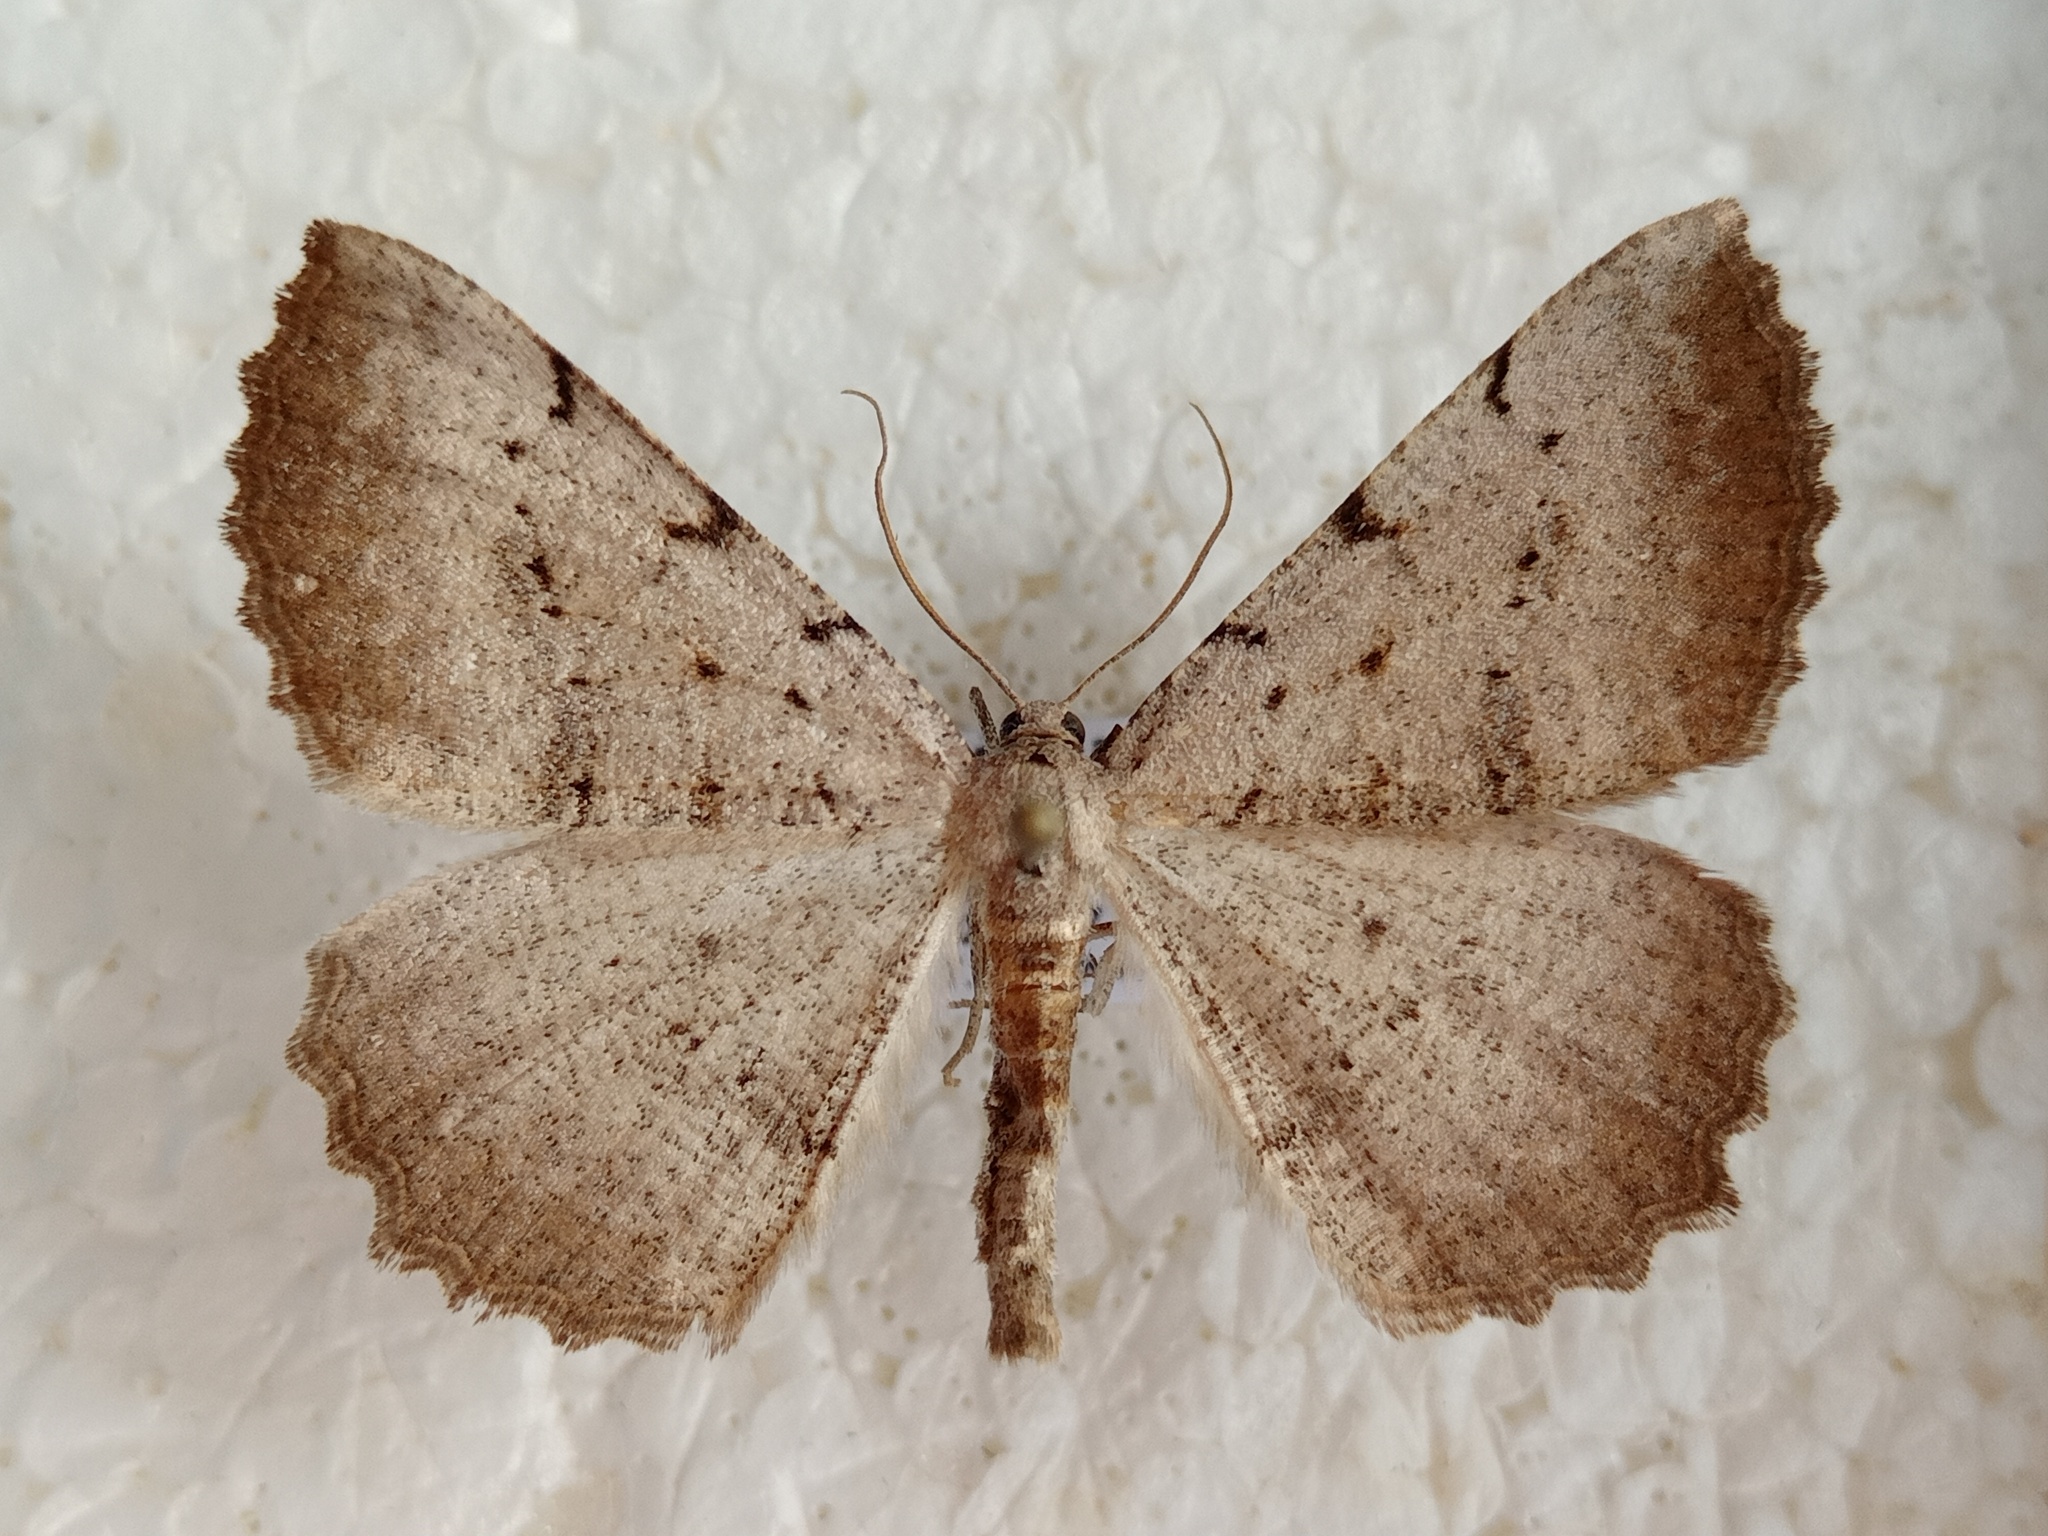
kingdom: Animalia
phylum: Arthropoda
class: Insecta
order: Lepidoptera
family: Geometridae
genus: Odontognophos
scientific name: Odontognophos dumetata
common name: Irish annulet
